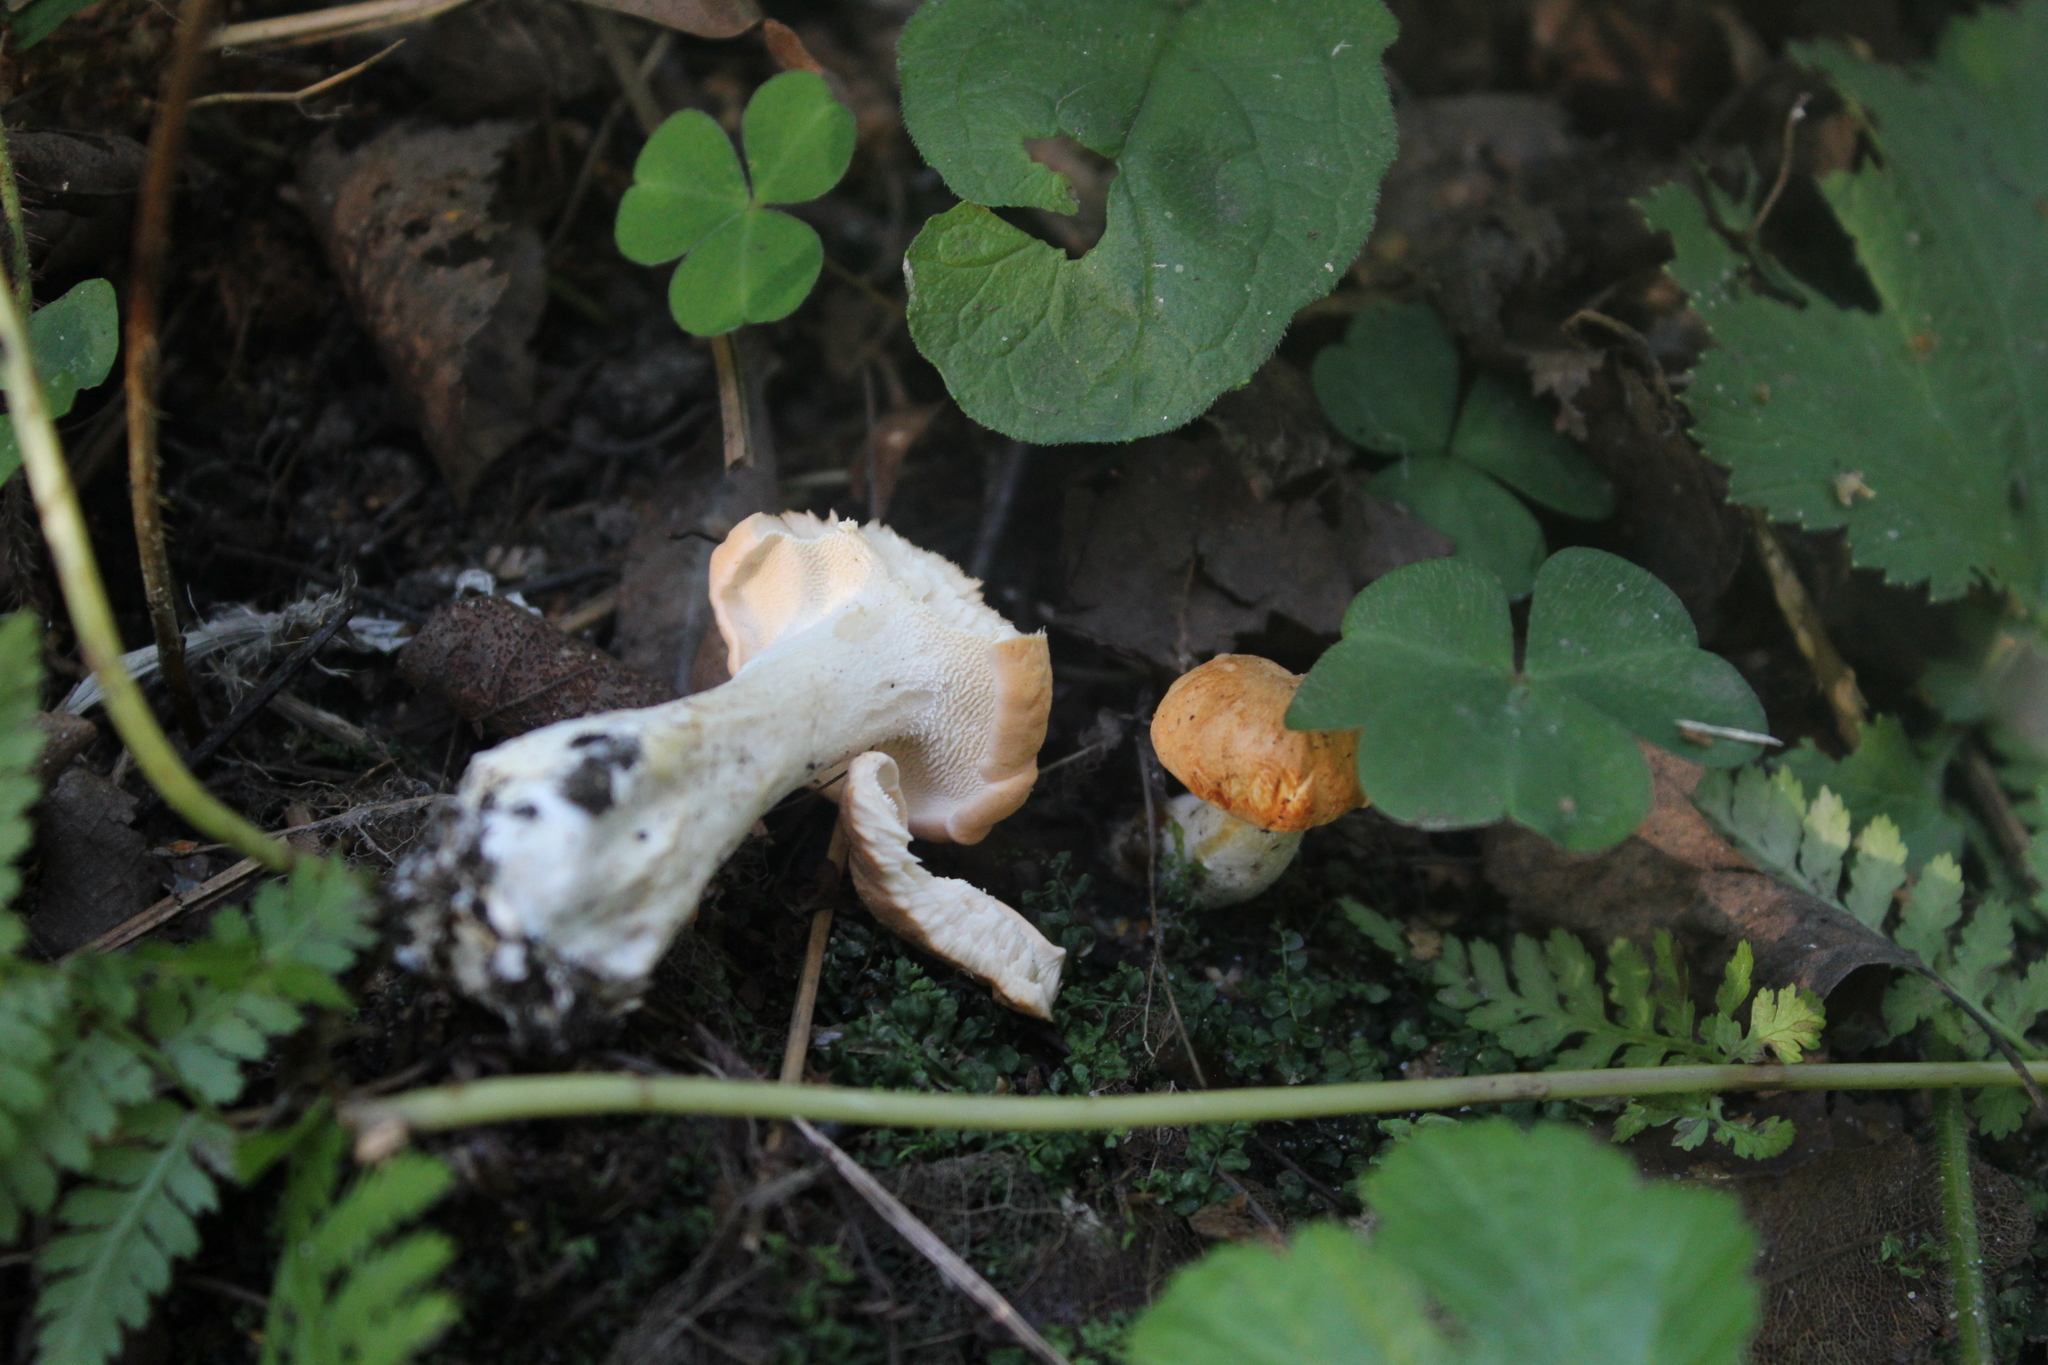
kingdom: Fungi
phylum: Basidiomycota
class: Agaricomycetes
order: Cantharellales
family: Hydnaceae
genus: Hydnum
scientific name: Hydnum rufescens
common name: Terracotta hedgehog
